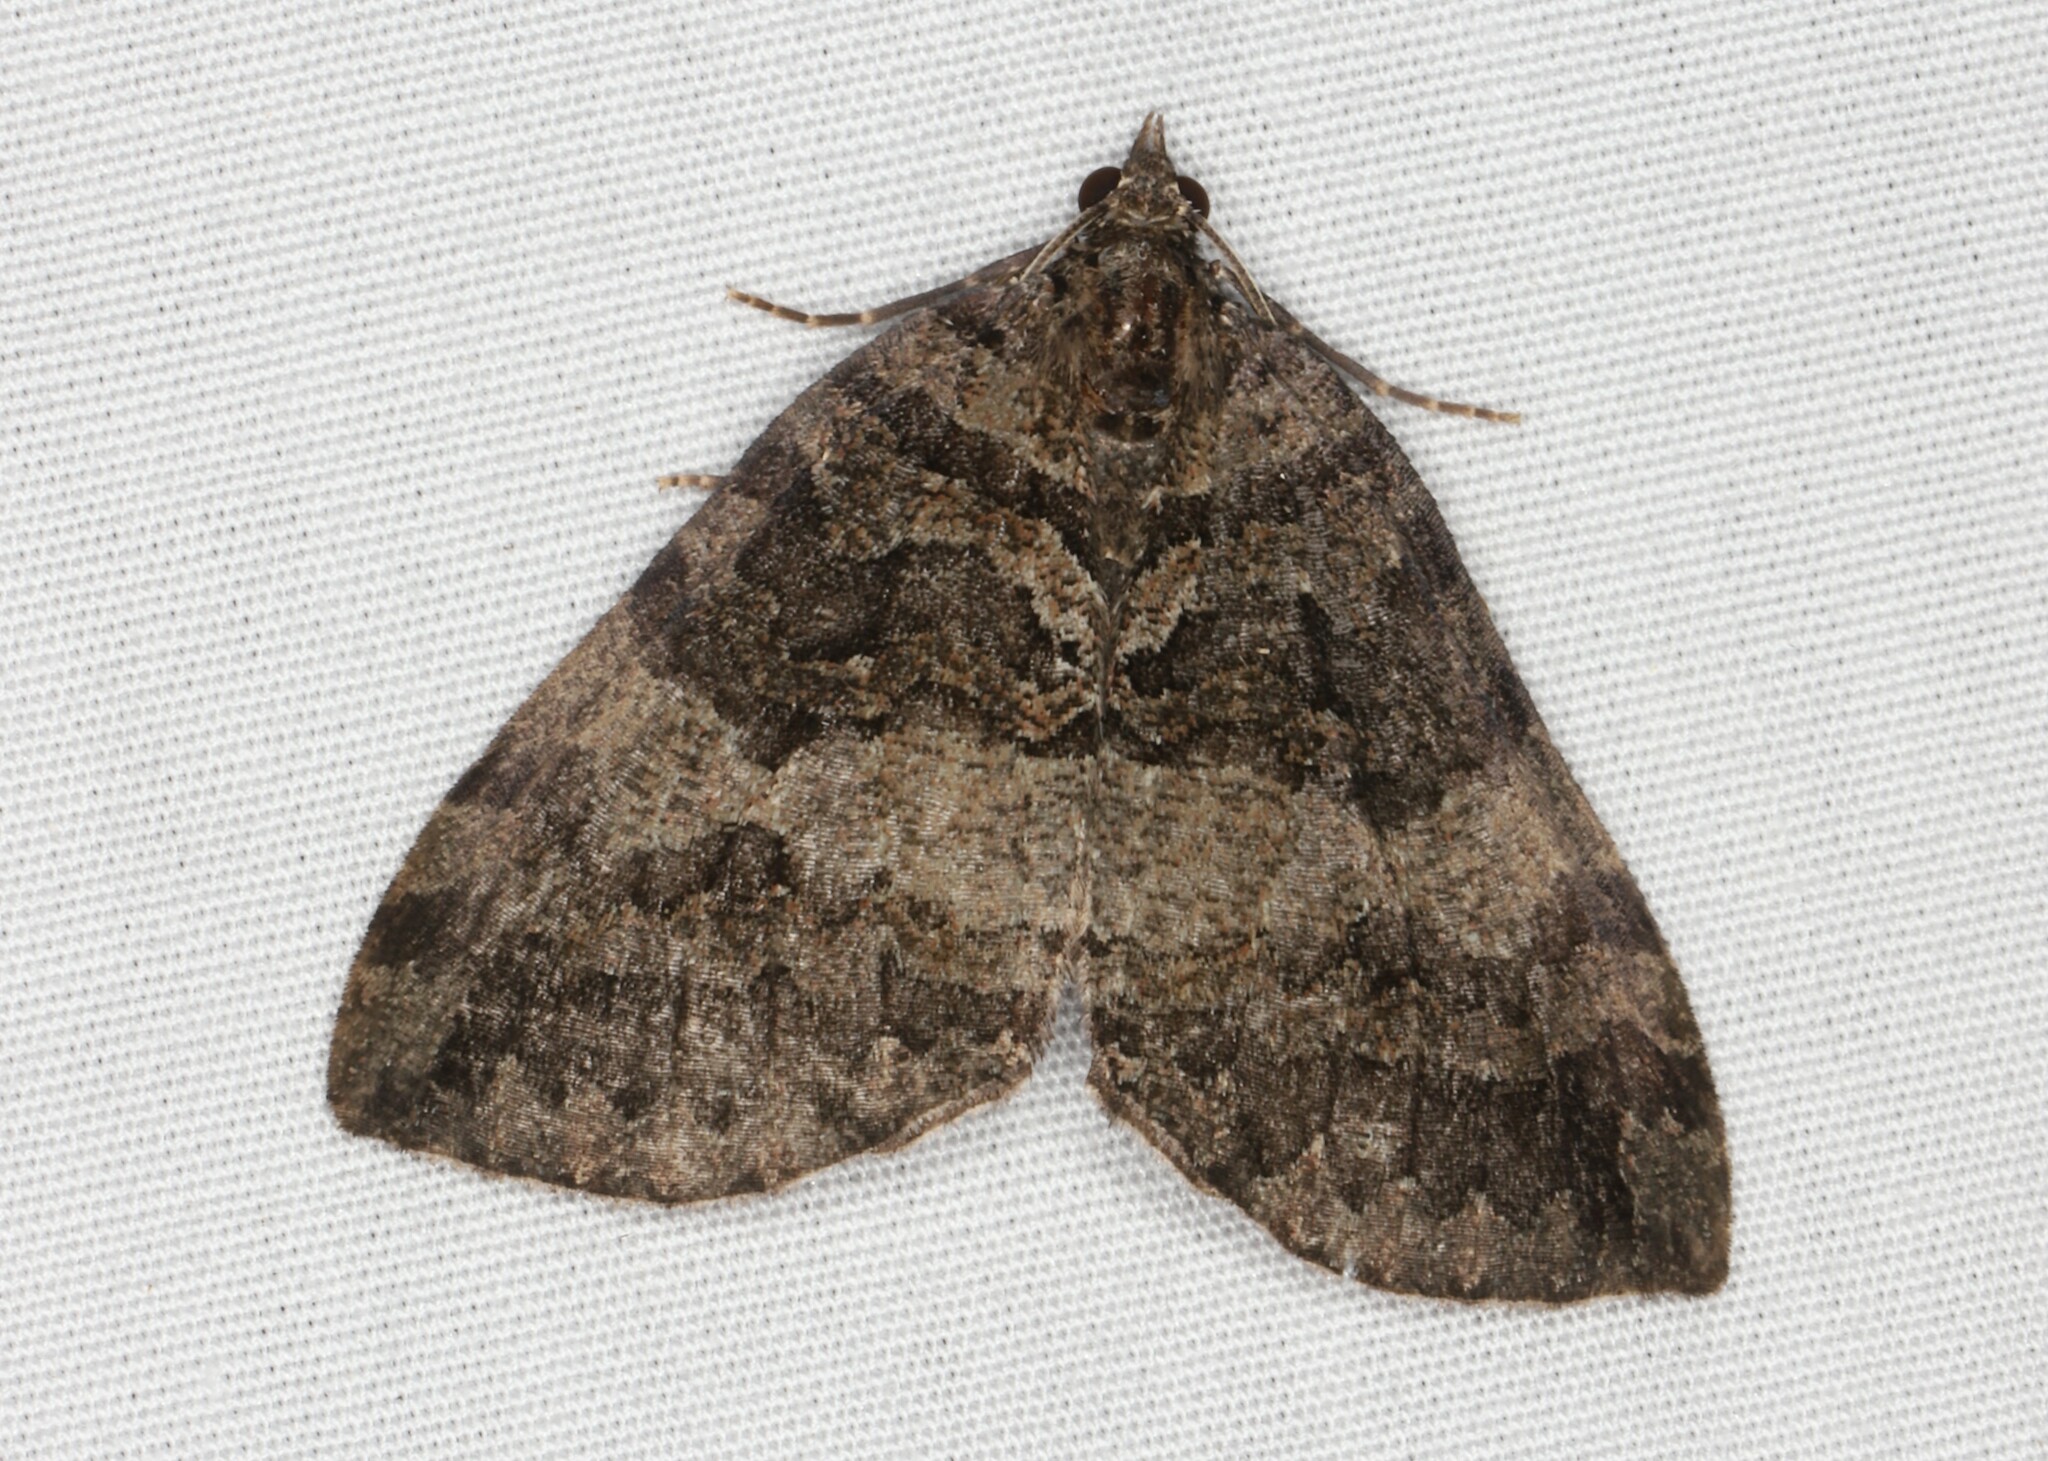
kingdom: Animalia
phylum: Arthropoda
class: Insecta
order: Lepidoptera
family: Geometridae
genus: Hydriomena
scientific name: Hydriomena furcata
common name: July highflyer
